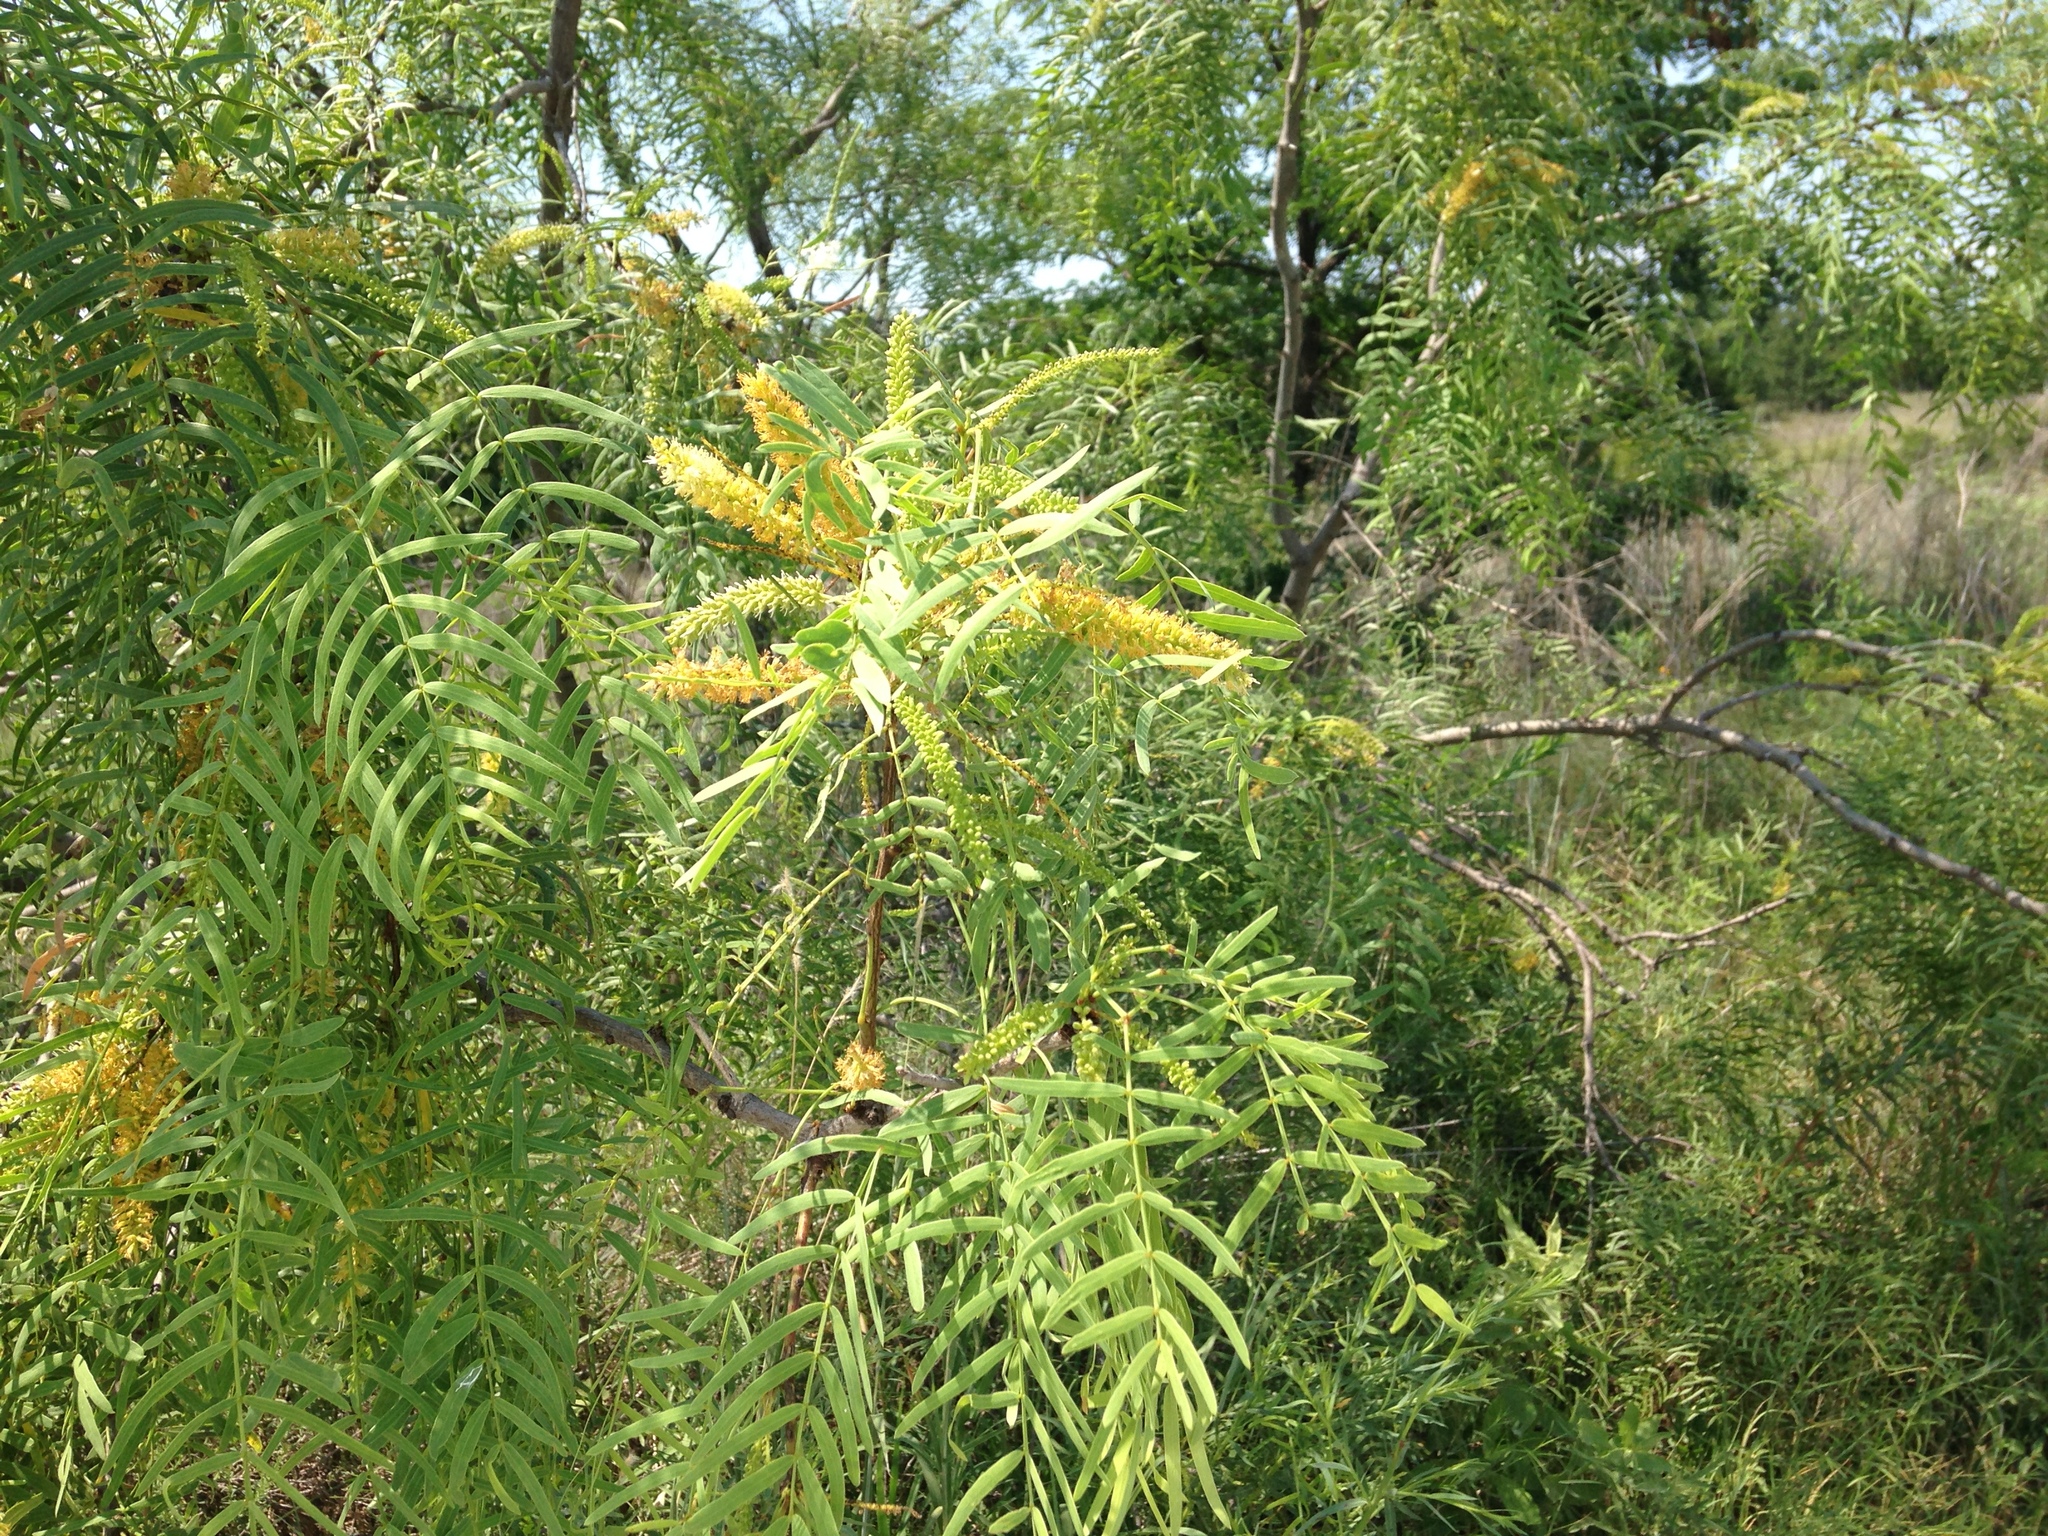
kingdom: Plantae
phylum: Tracheophyta
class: Magnoliopsida
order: Fabales
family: Fabaceae
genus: Prosopis
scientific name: Prosopis glandulosa
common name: Honey mesquite
